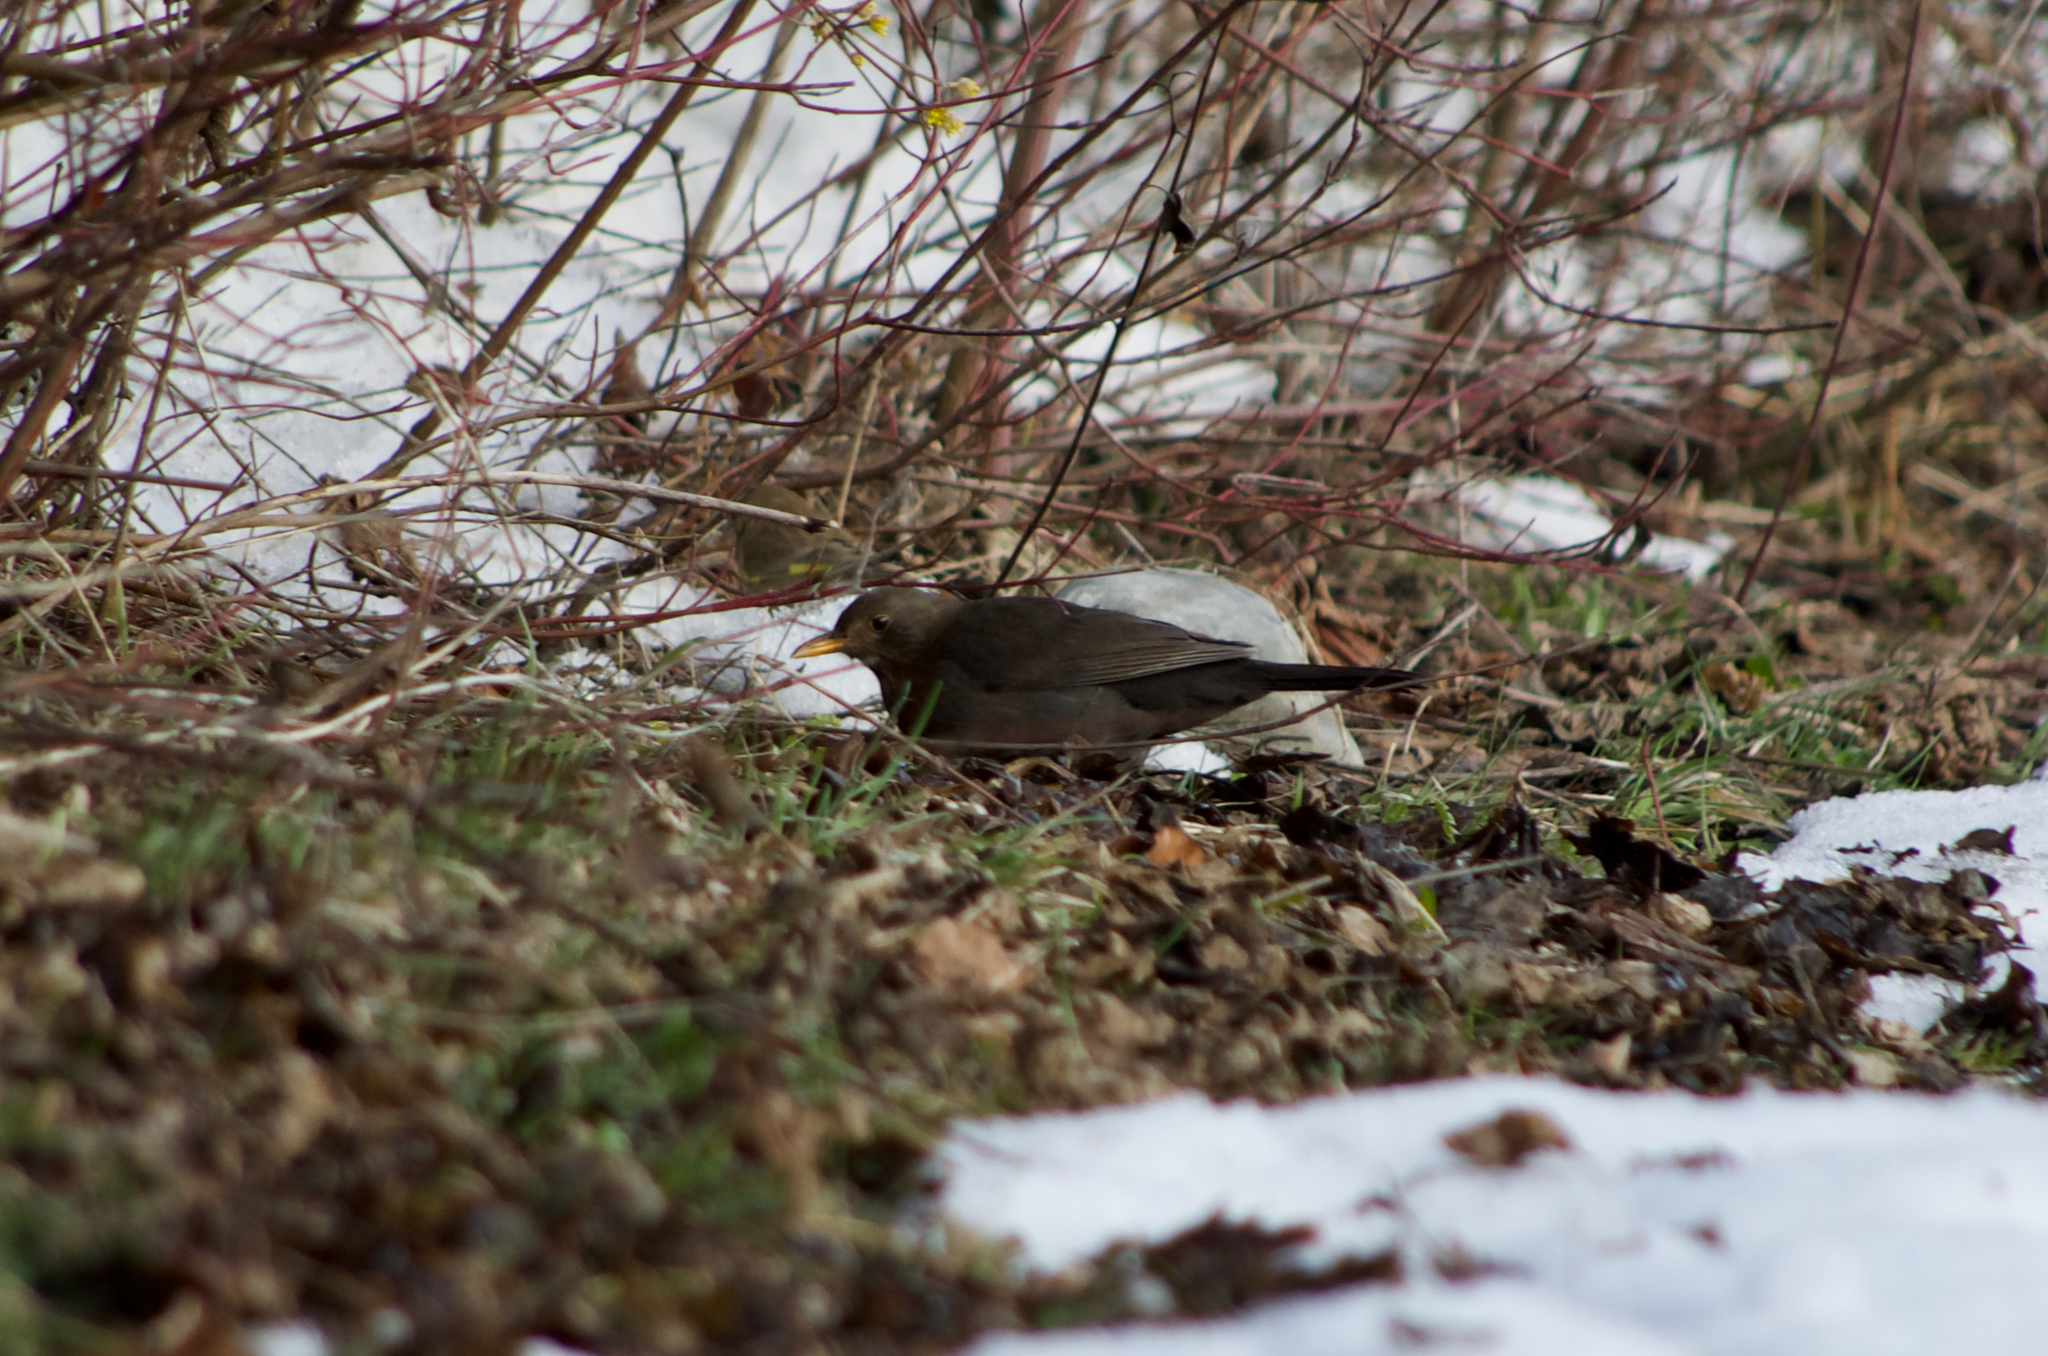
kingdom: Animalia
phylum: Chordata
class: Aves
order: Passeriformes
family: Turdidae
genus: Turdus
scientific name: Turdus merula
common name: Common blackbird
